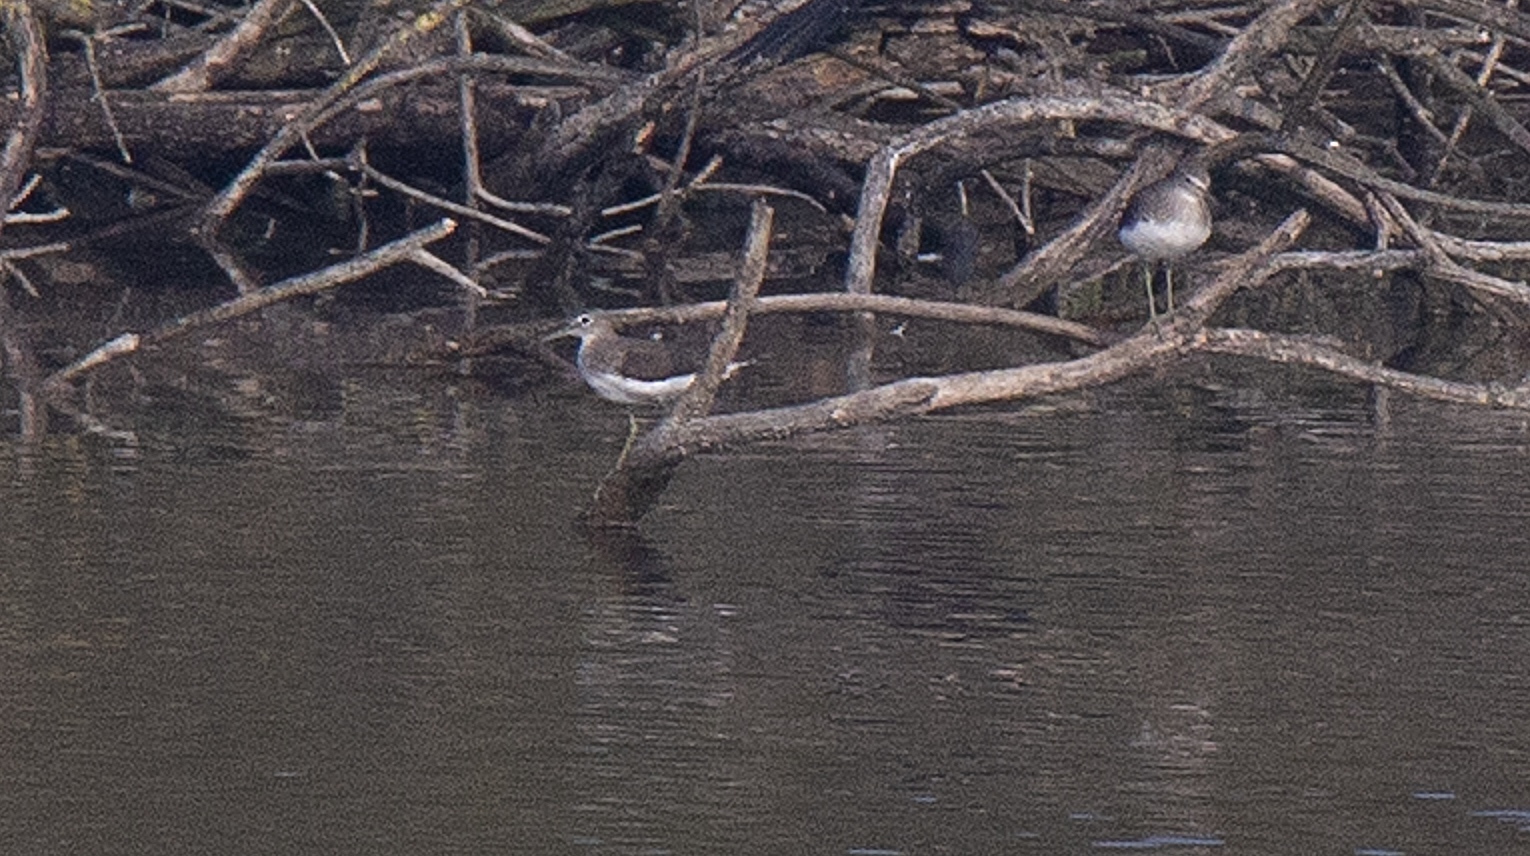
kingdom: Animalia
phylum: Chordata
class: Aves
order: Charadriiformes
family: Scolopacidae
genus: Tringa
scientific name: Tringa ochropus
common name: Green sandpiper
